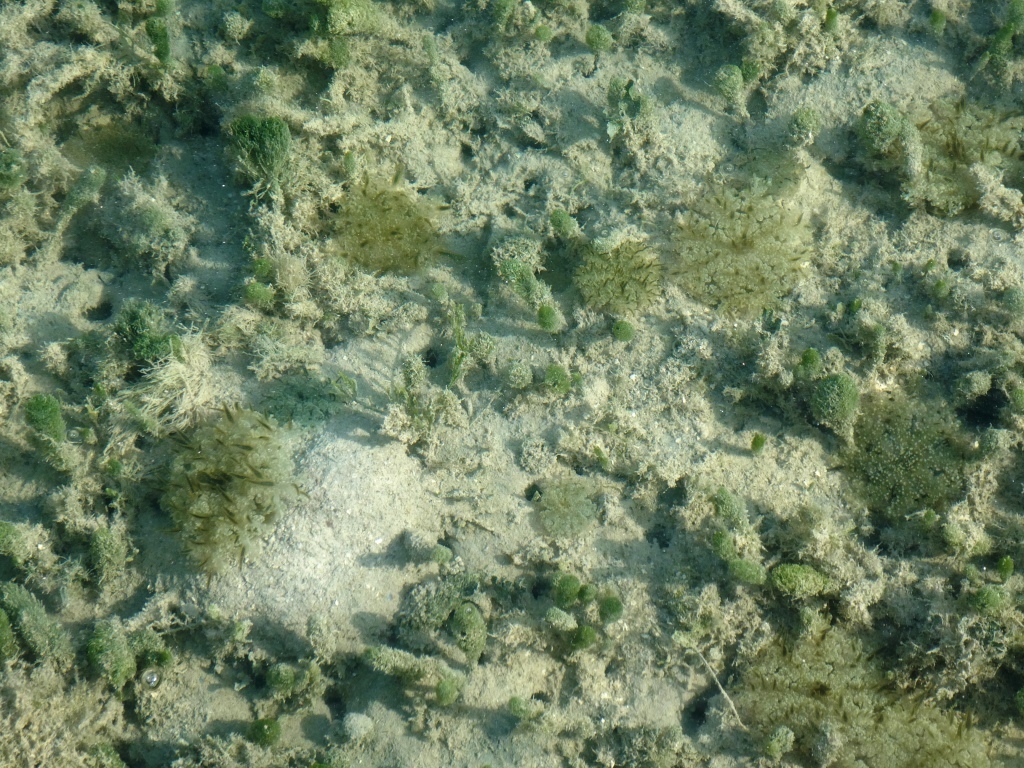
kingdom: Animalia
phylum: Cnidaria
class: Scyphozoa
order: Rhizostomeae
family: Cassiopeidae
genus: Cassiopea
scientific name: Cassiopea andromeda
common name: Upside-down jellyfish
